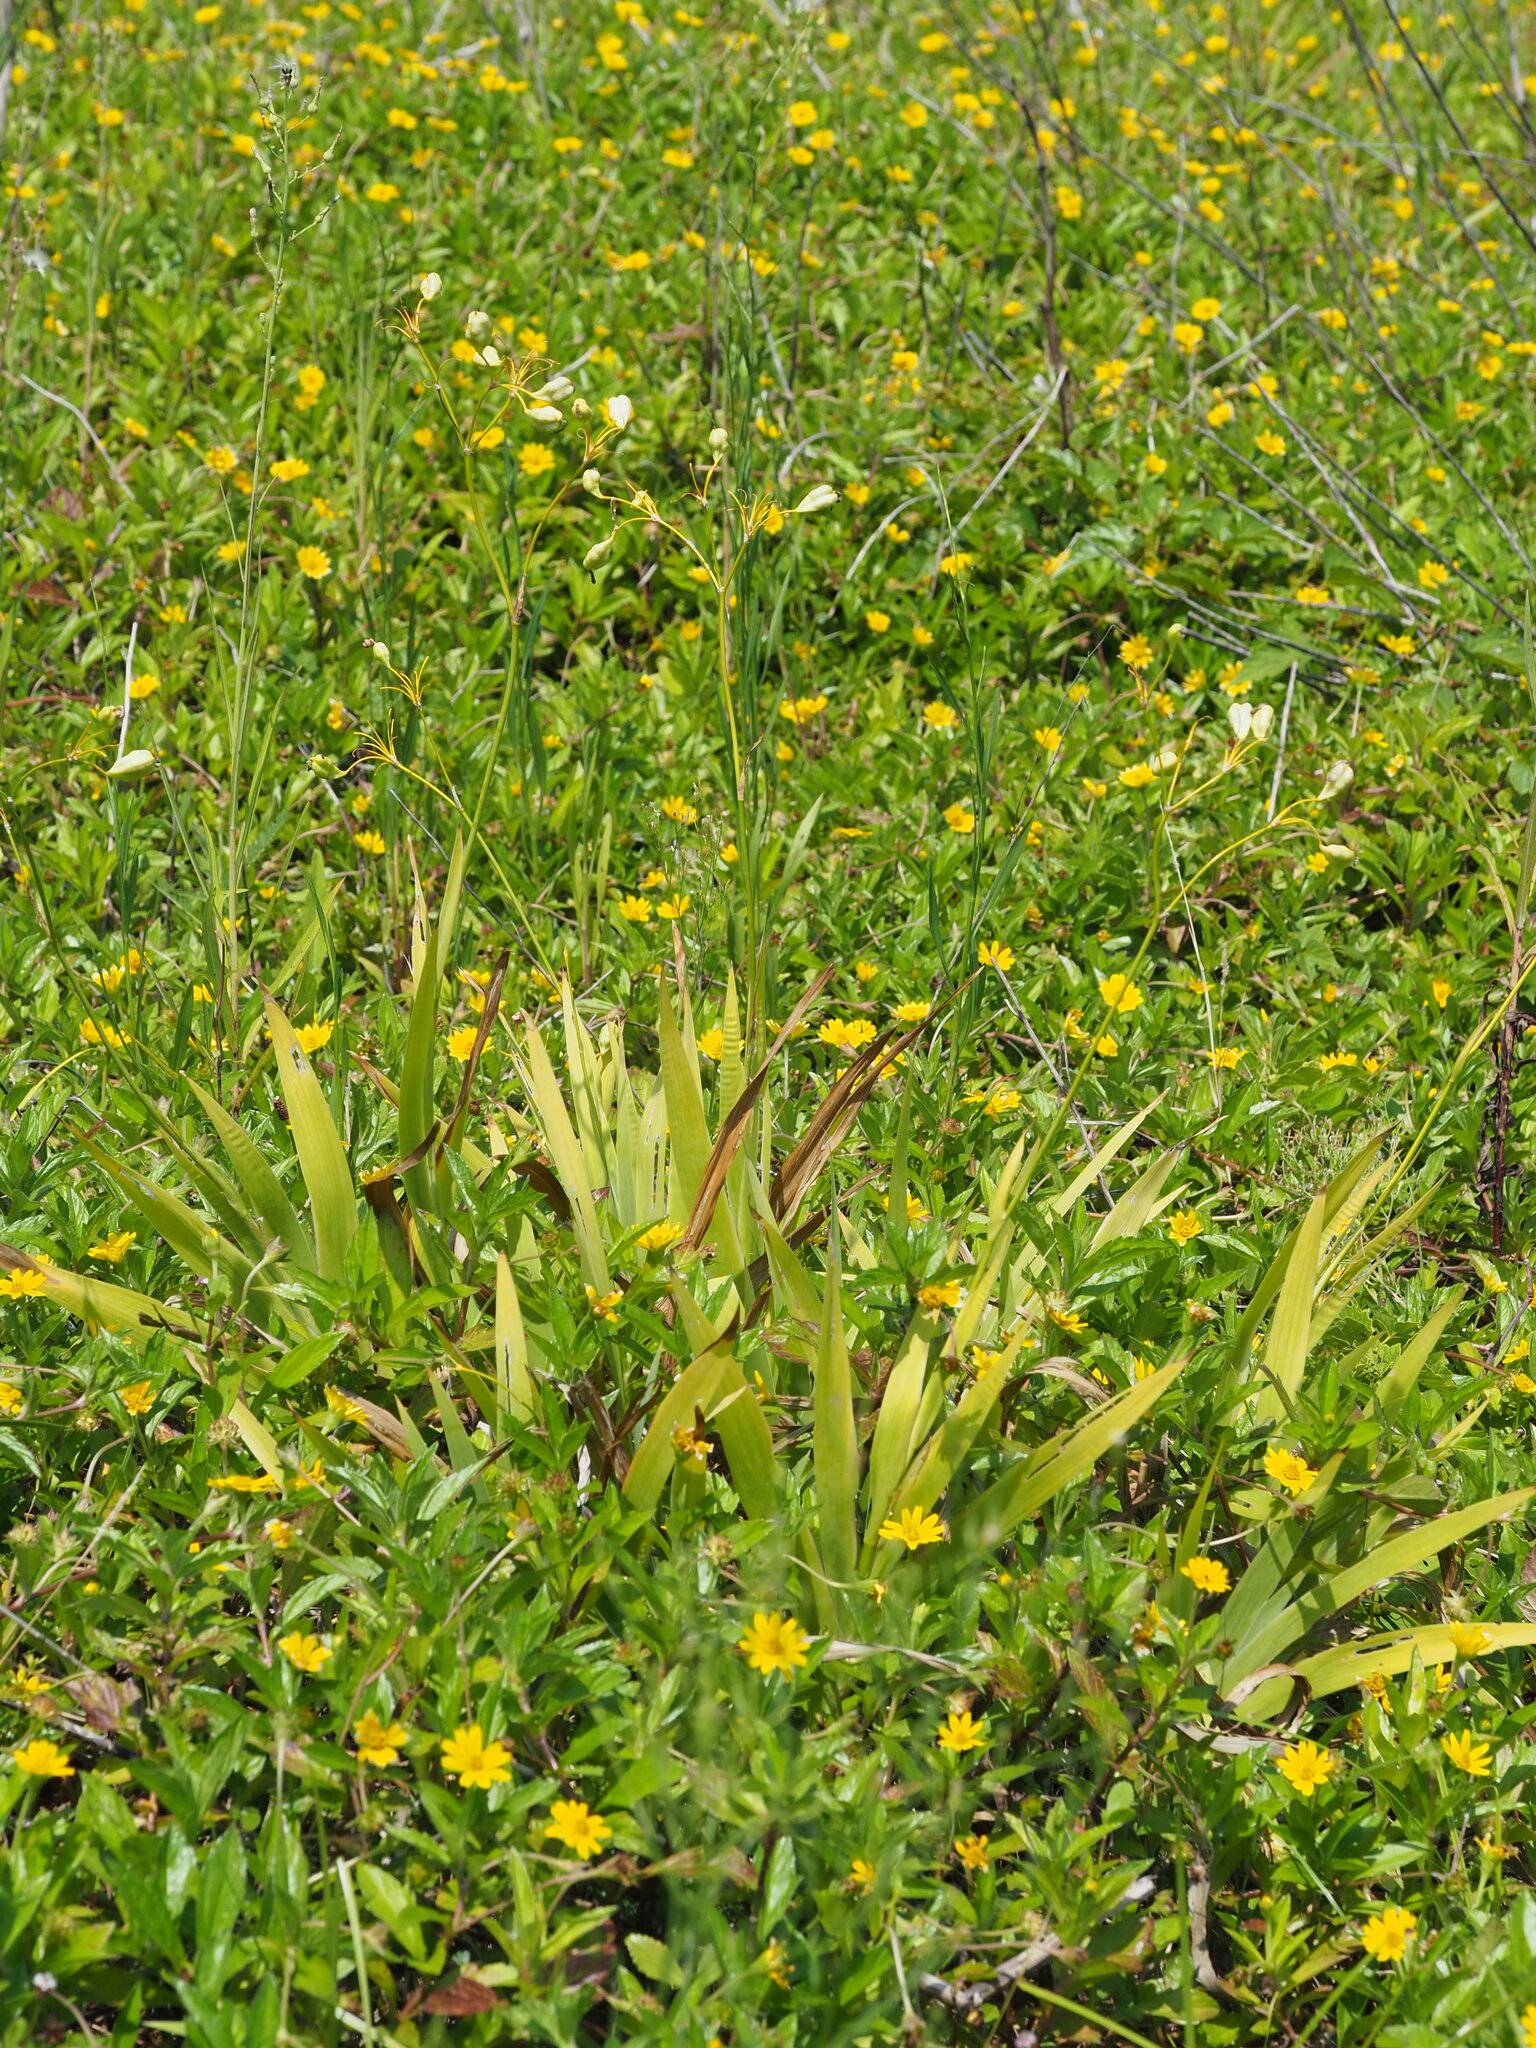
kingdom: Plantae
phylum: Tracheophyta
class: Liliopsida
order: Asparagales
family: Iridaceae
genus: Iris
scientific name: Iris domestica
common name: Belamcanda
